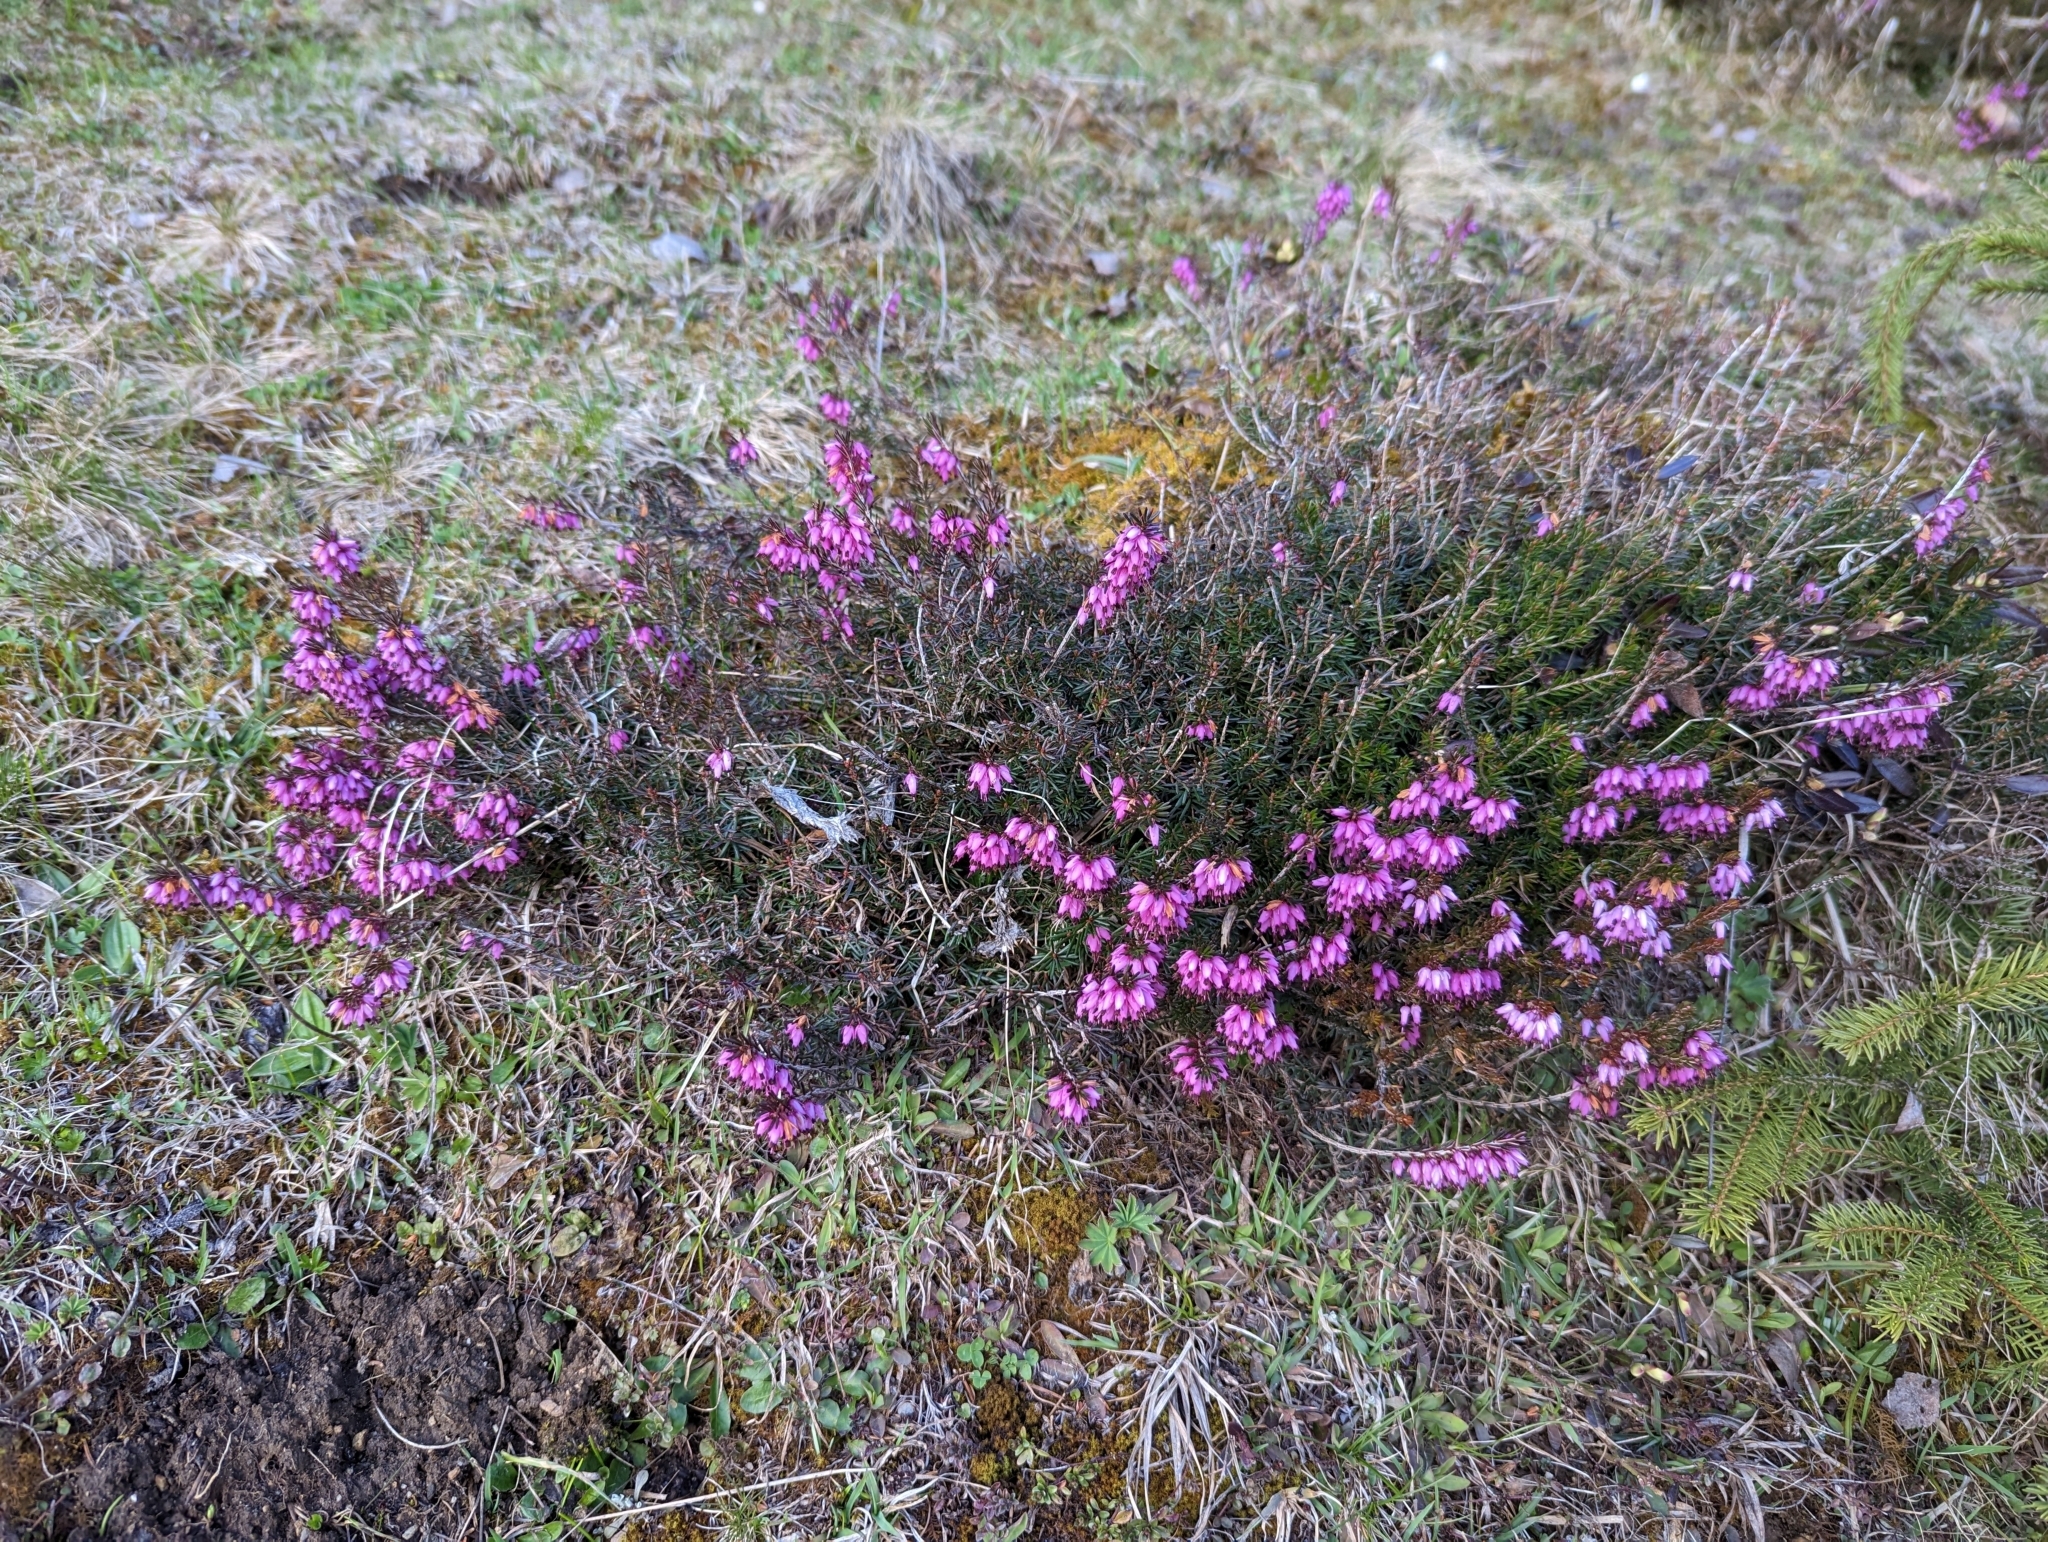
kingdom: Plantae
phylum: Tracheophyta
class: Magnoliopsida
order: Ericales
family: Ericaceae
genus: Erica
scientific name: Erica carnea
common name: Winter heath
